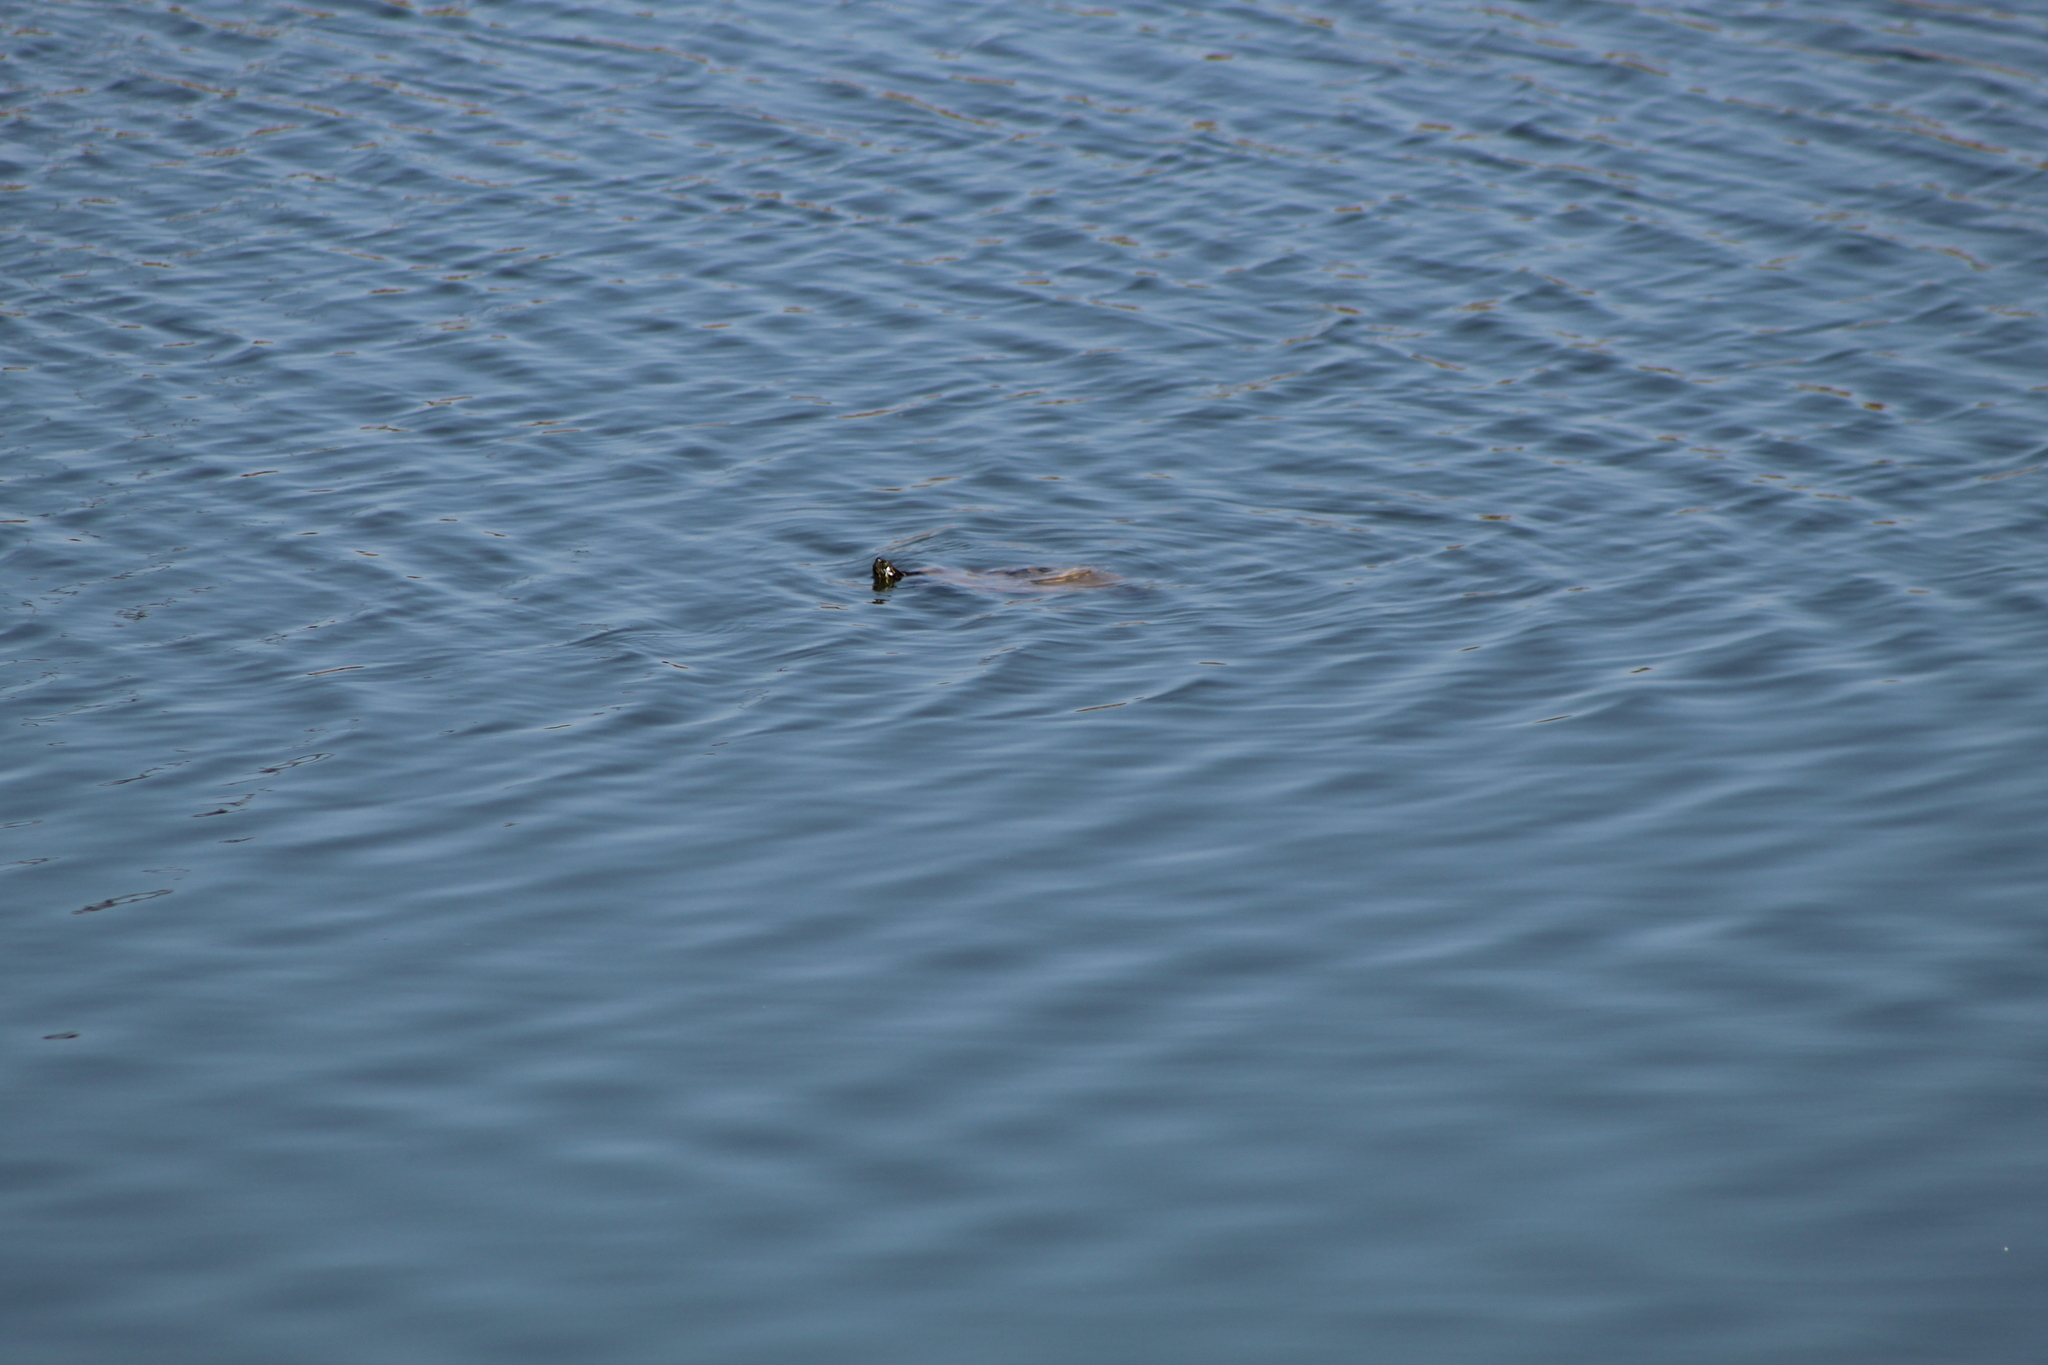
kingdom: Animalia
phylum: Chordata
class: Testudines
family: Emydidae
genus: Pseudemys
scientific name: Pseudemys concinna
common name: Eastern river cooter
